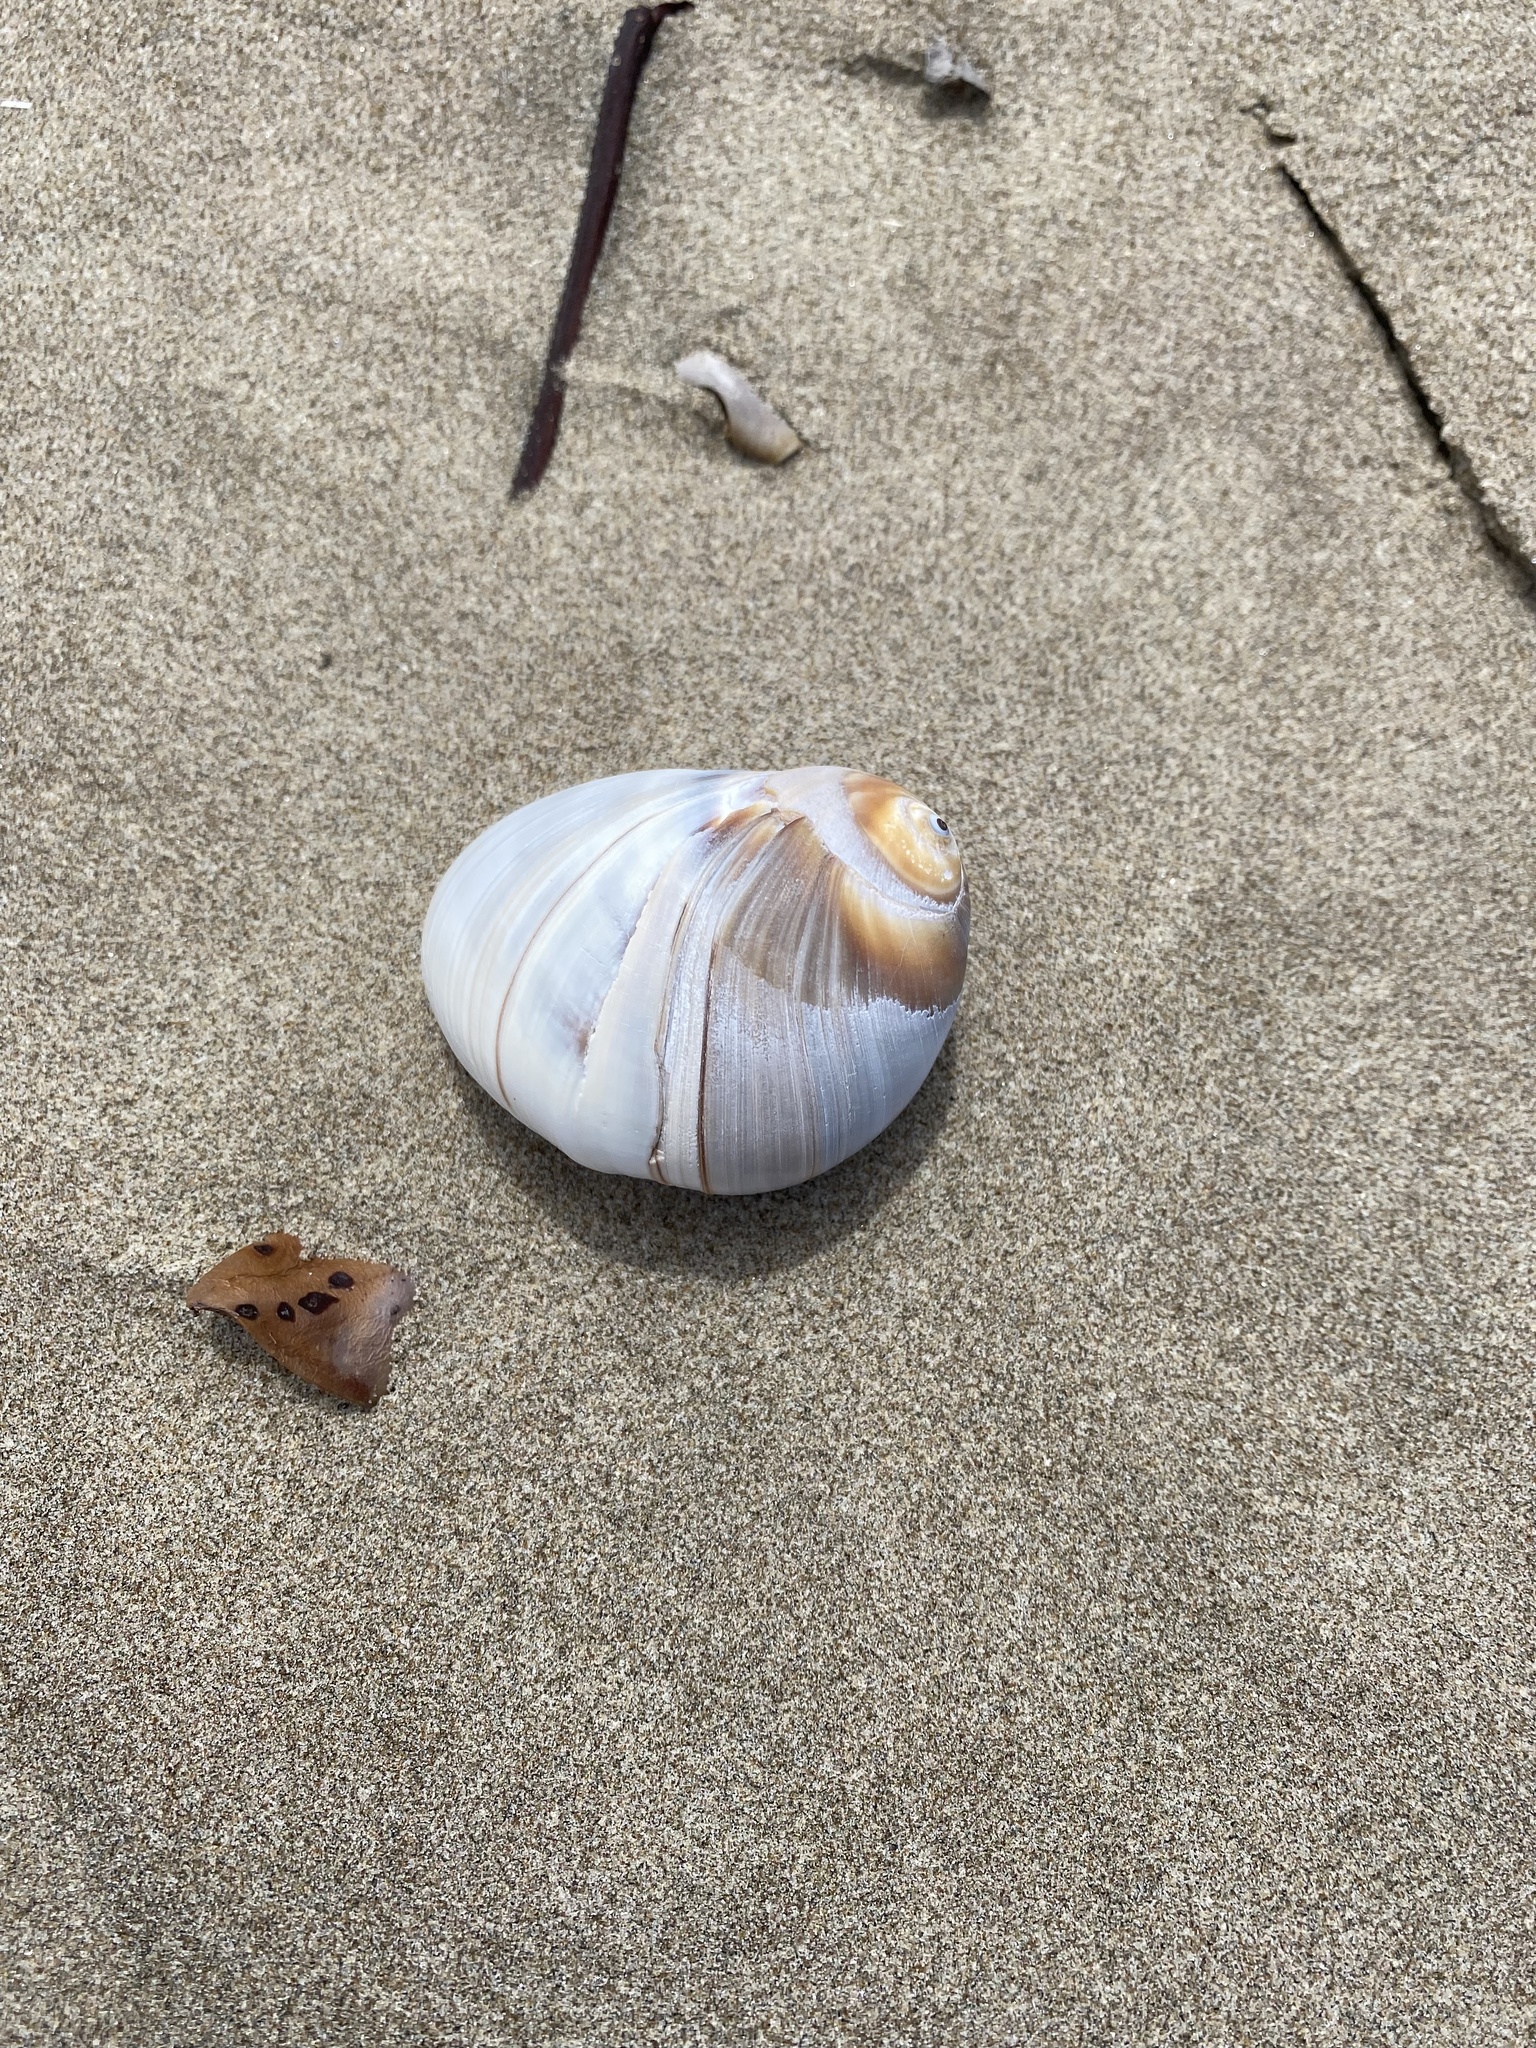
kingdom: Animalia
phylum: Mollusca
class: Gastropoda
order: Littorinimorpha
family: Naticidae
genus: Glossaulax
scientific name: Glossaulax reclusiana
